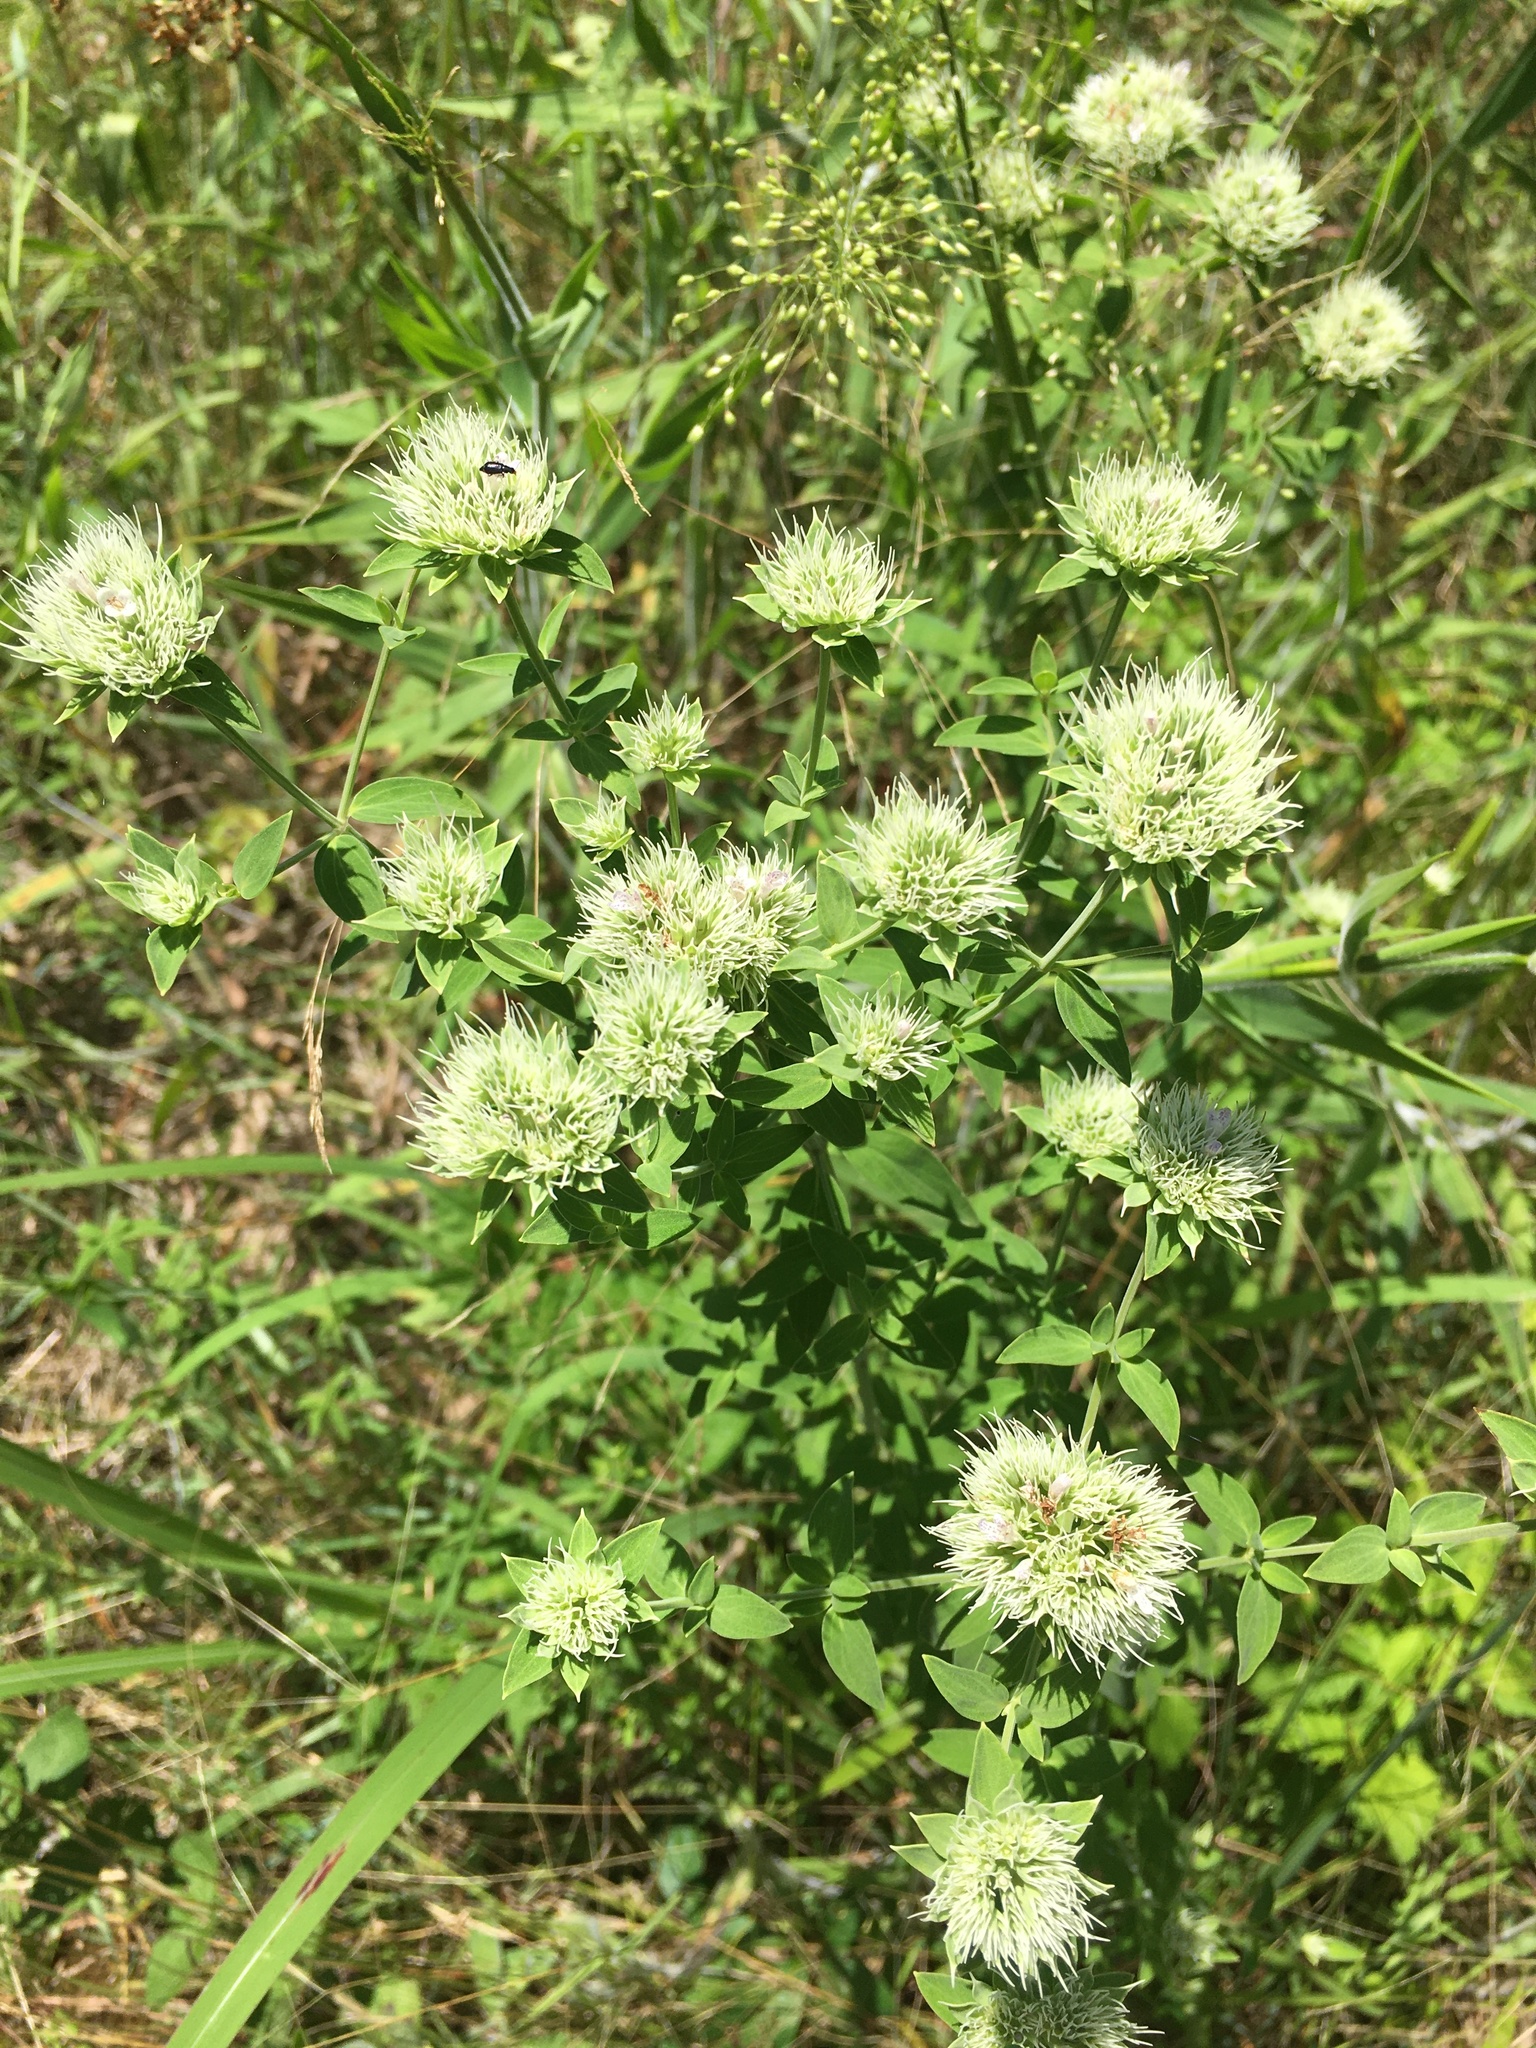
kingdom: Plantae
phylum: Tracheophyta
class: Magnoliopsida
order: Lamiales
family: Lamiaceae
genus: Pycnanthemum
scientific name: Pycnanthemum flexuosum
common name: Appalachian mountain-mint
